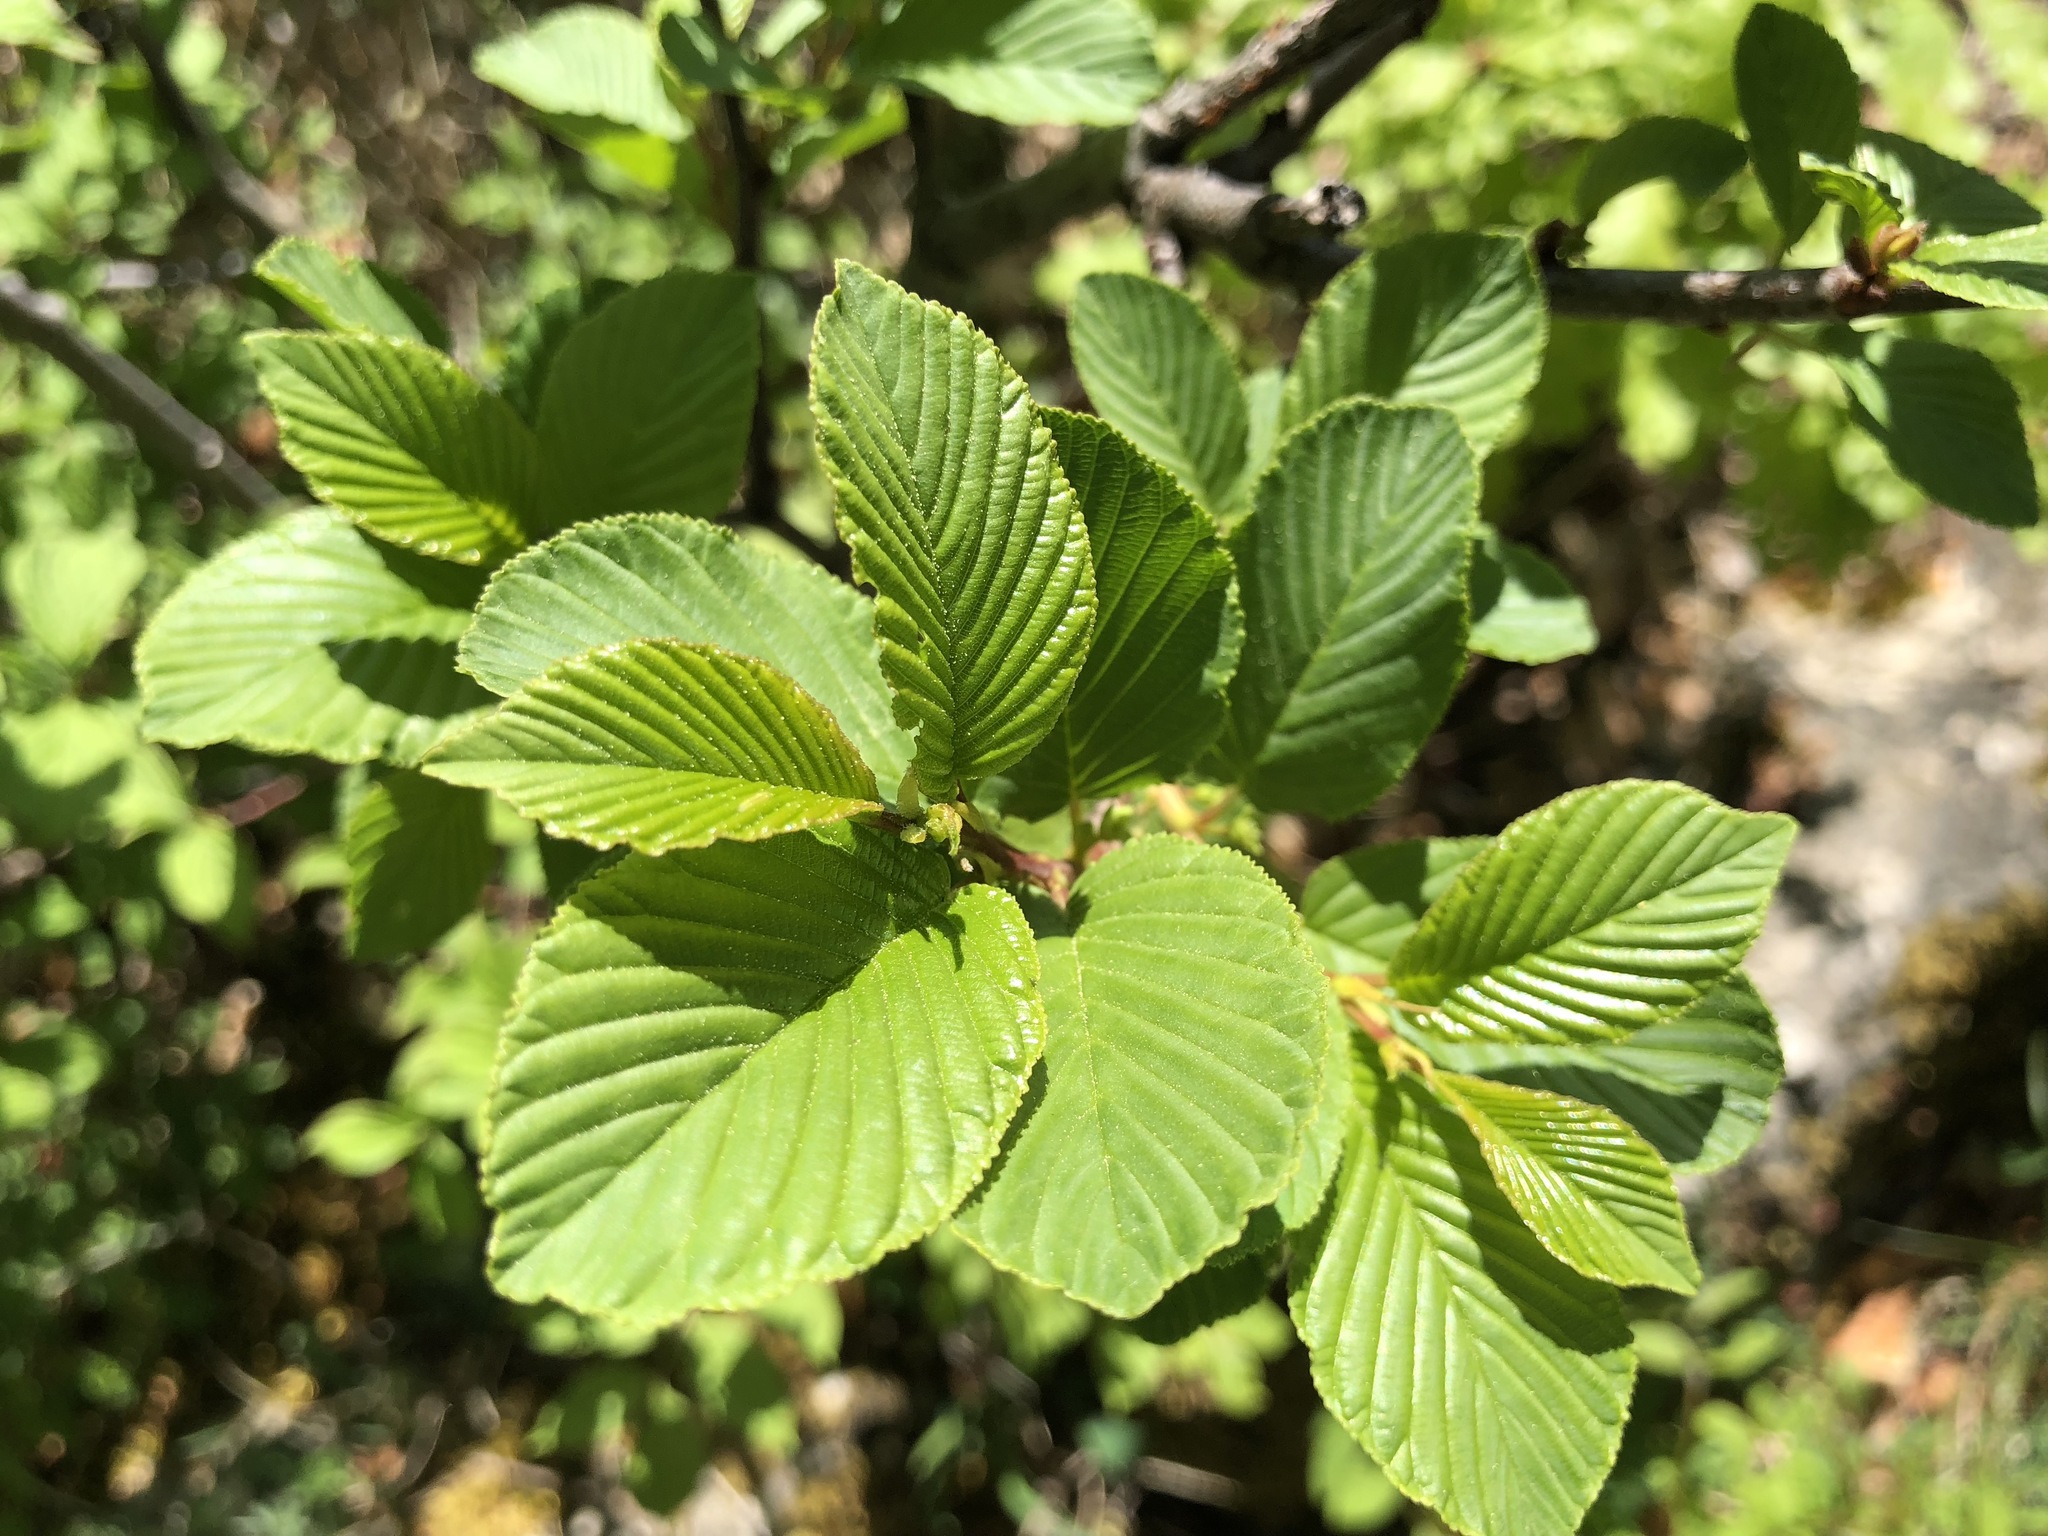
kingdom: Plantae
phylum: Tracheophyta
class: Magnoliopsida
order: Rosales
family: Rhamnaceae
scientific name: Rhamnaceae
